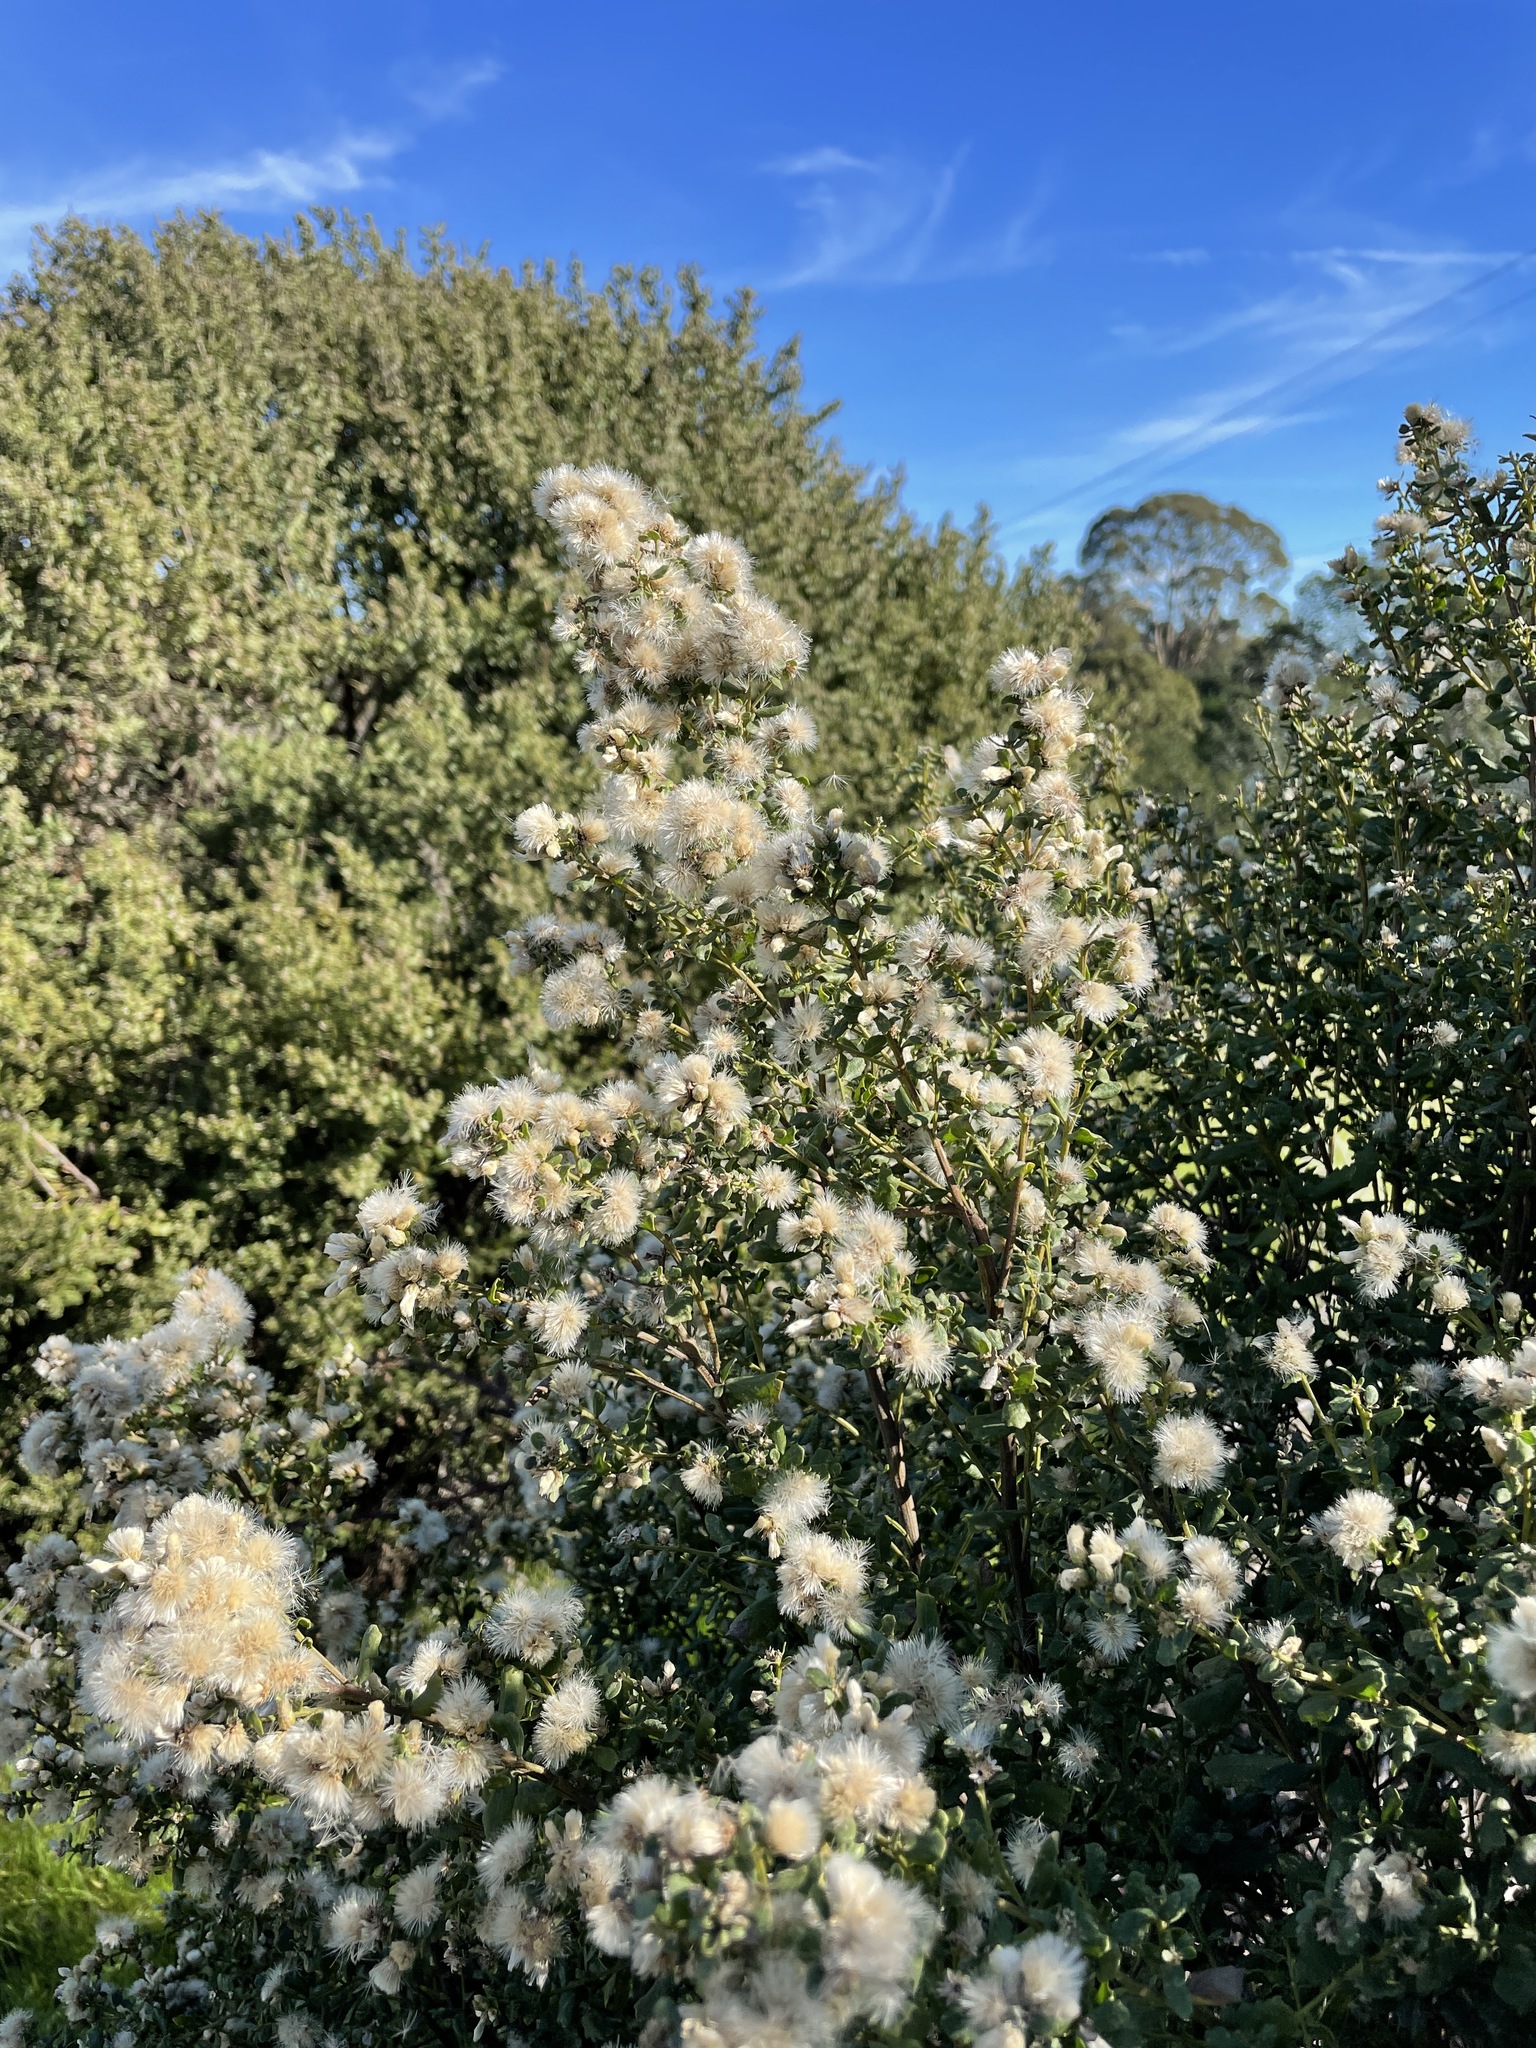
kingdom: Plantae
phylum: Tracheophyta
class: Magnoliopsida
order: Asterales
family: Asteraceae
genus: Baccharis
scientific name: Baccharis pilularis
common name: Coyotebrush
